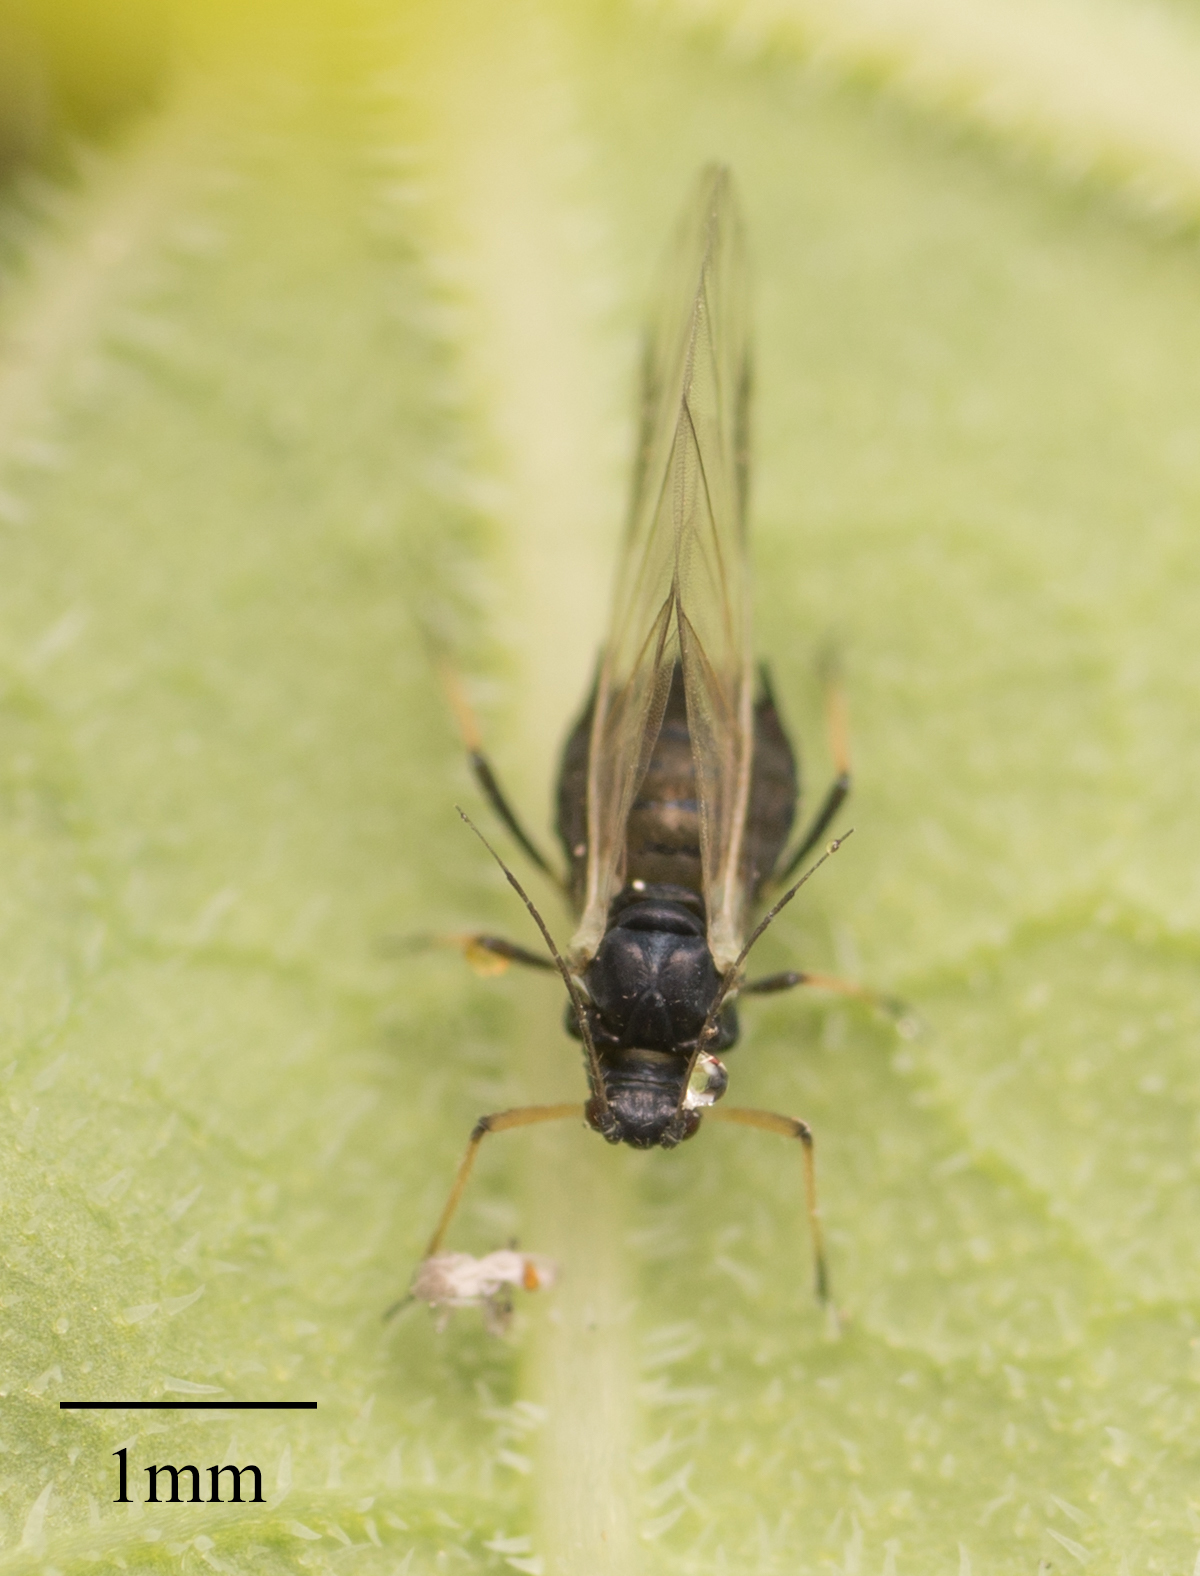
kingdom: Animalia
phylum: Arthropoda
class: Insecta
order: Hemiptera
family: Aphididae
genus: Aphis
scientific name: Aphis fabae
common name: Bean aphid
